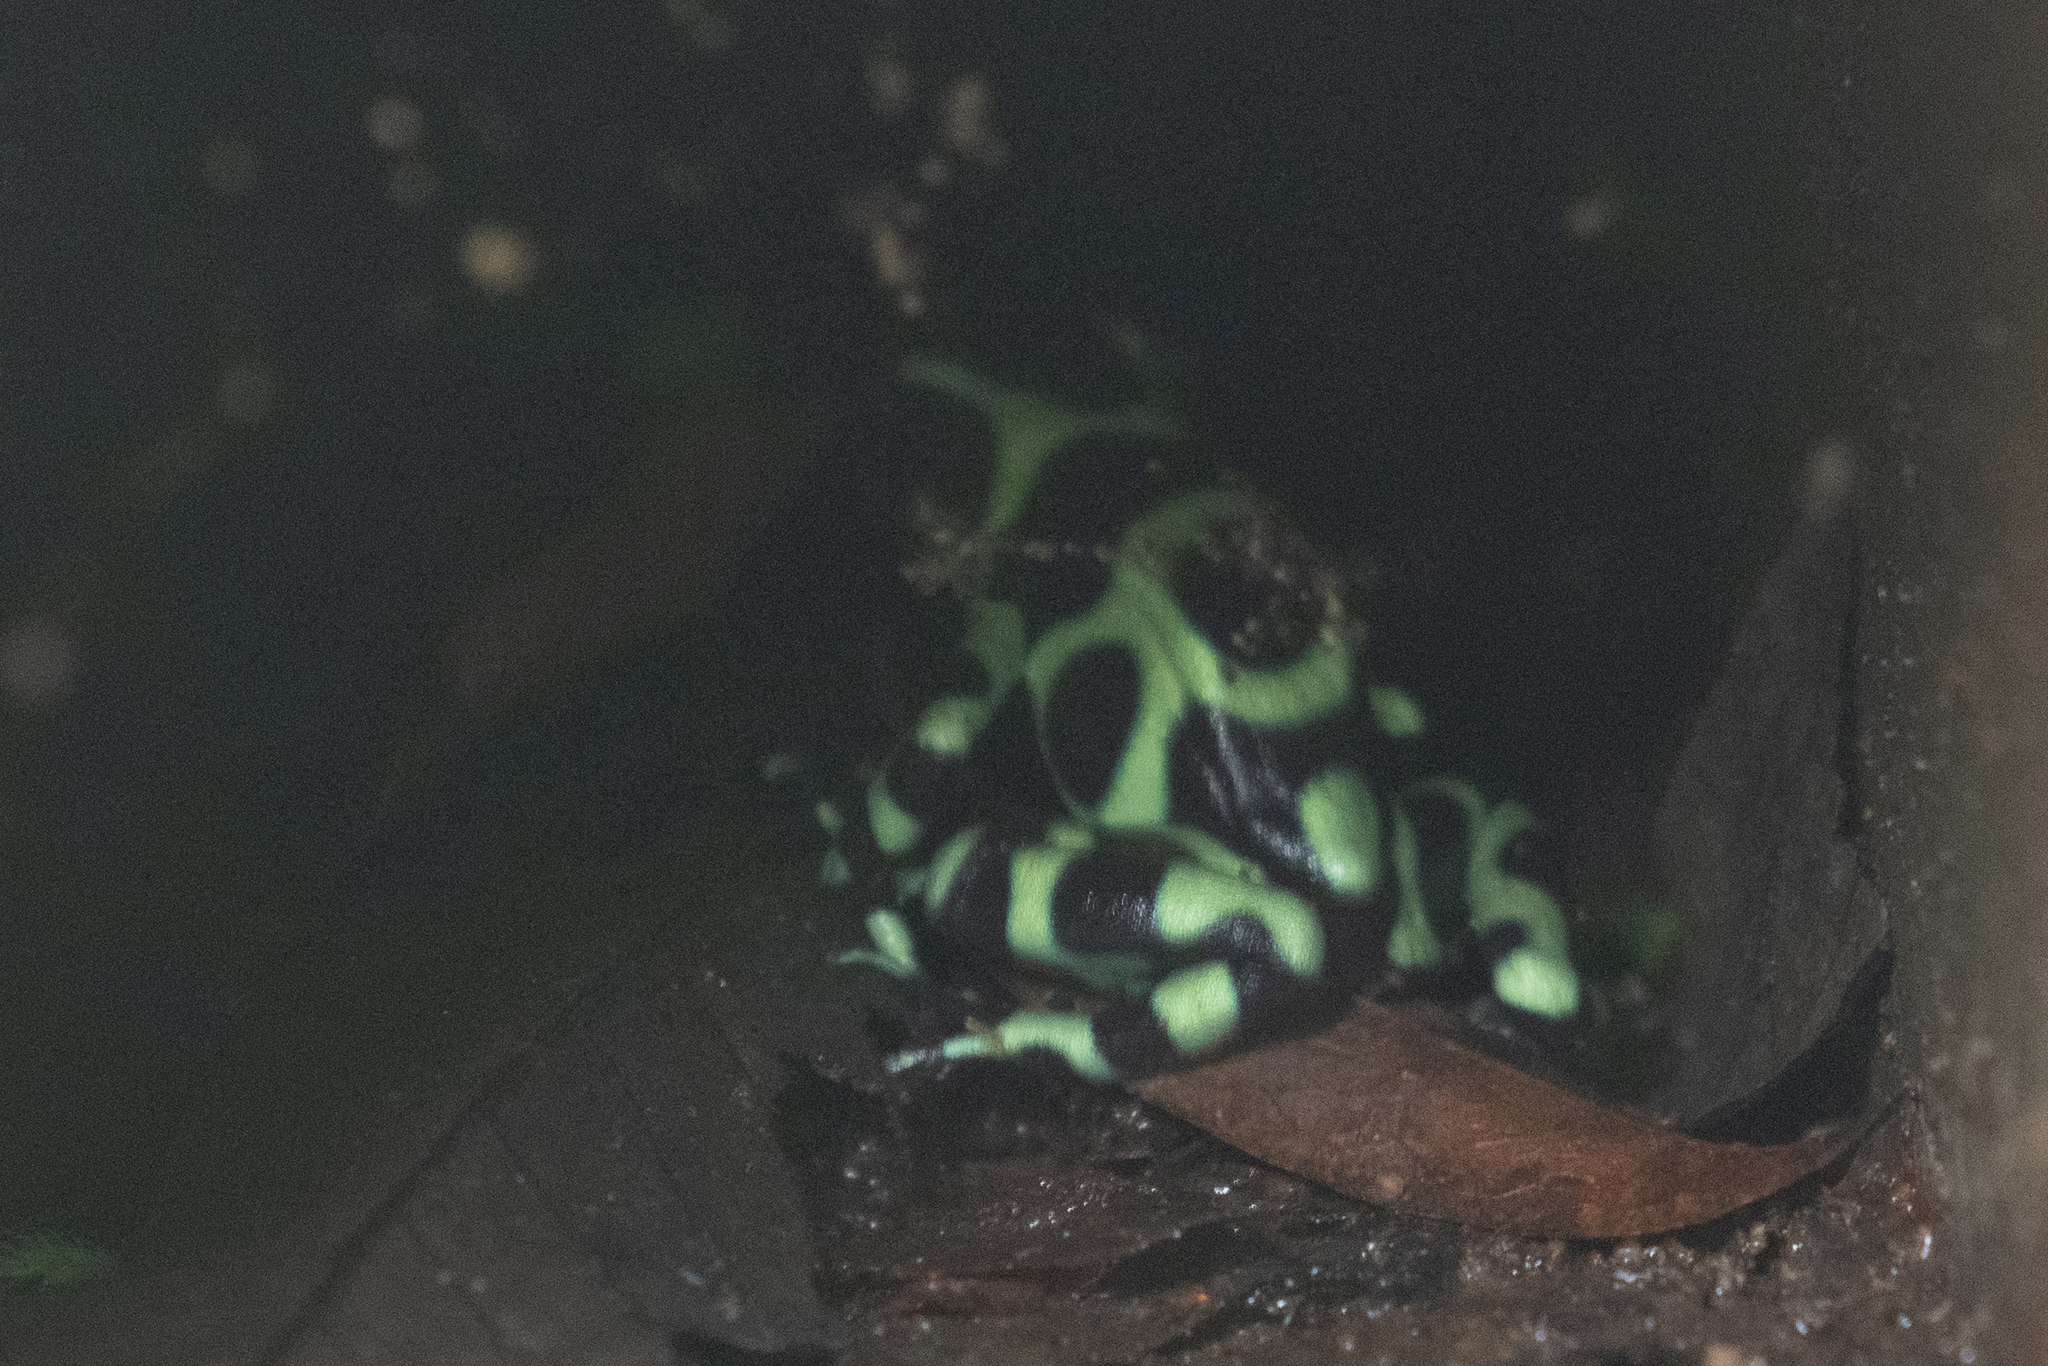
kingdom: Animalia
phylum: Chordata
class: Amphibia
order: Anura
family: Dendrobatidae
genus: Dendrobates
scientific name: Dendrobates auratus
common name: Green and black poison dart frog
